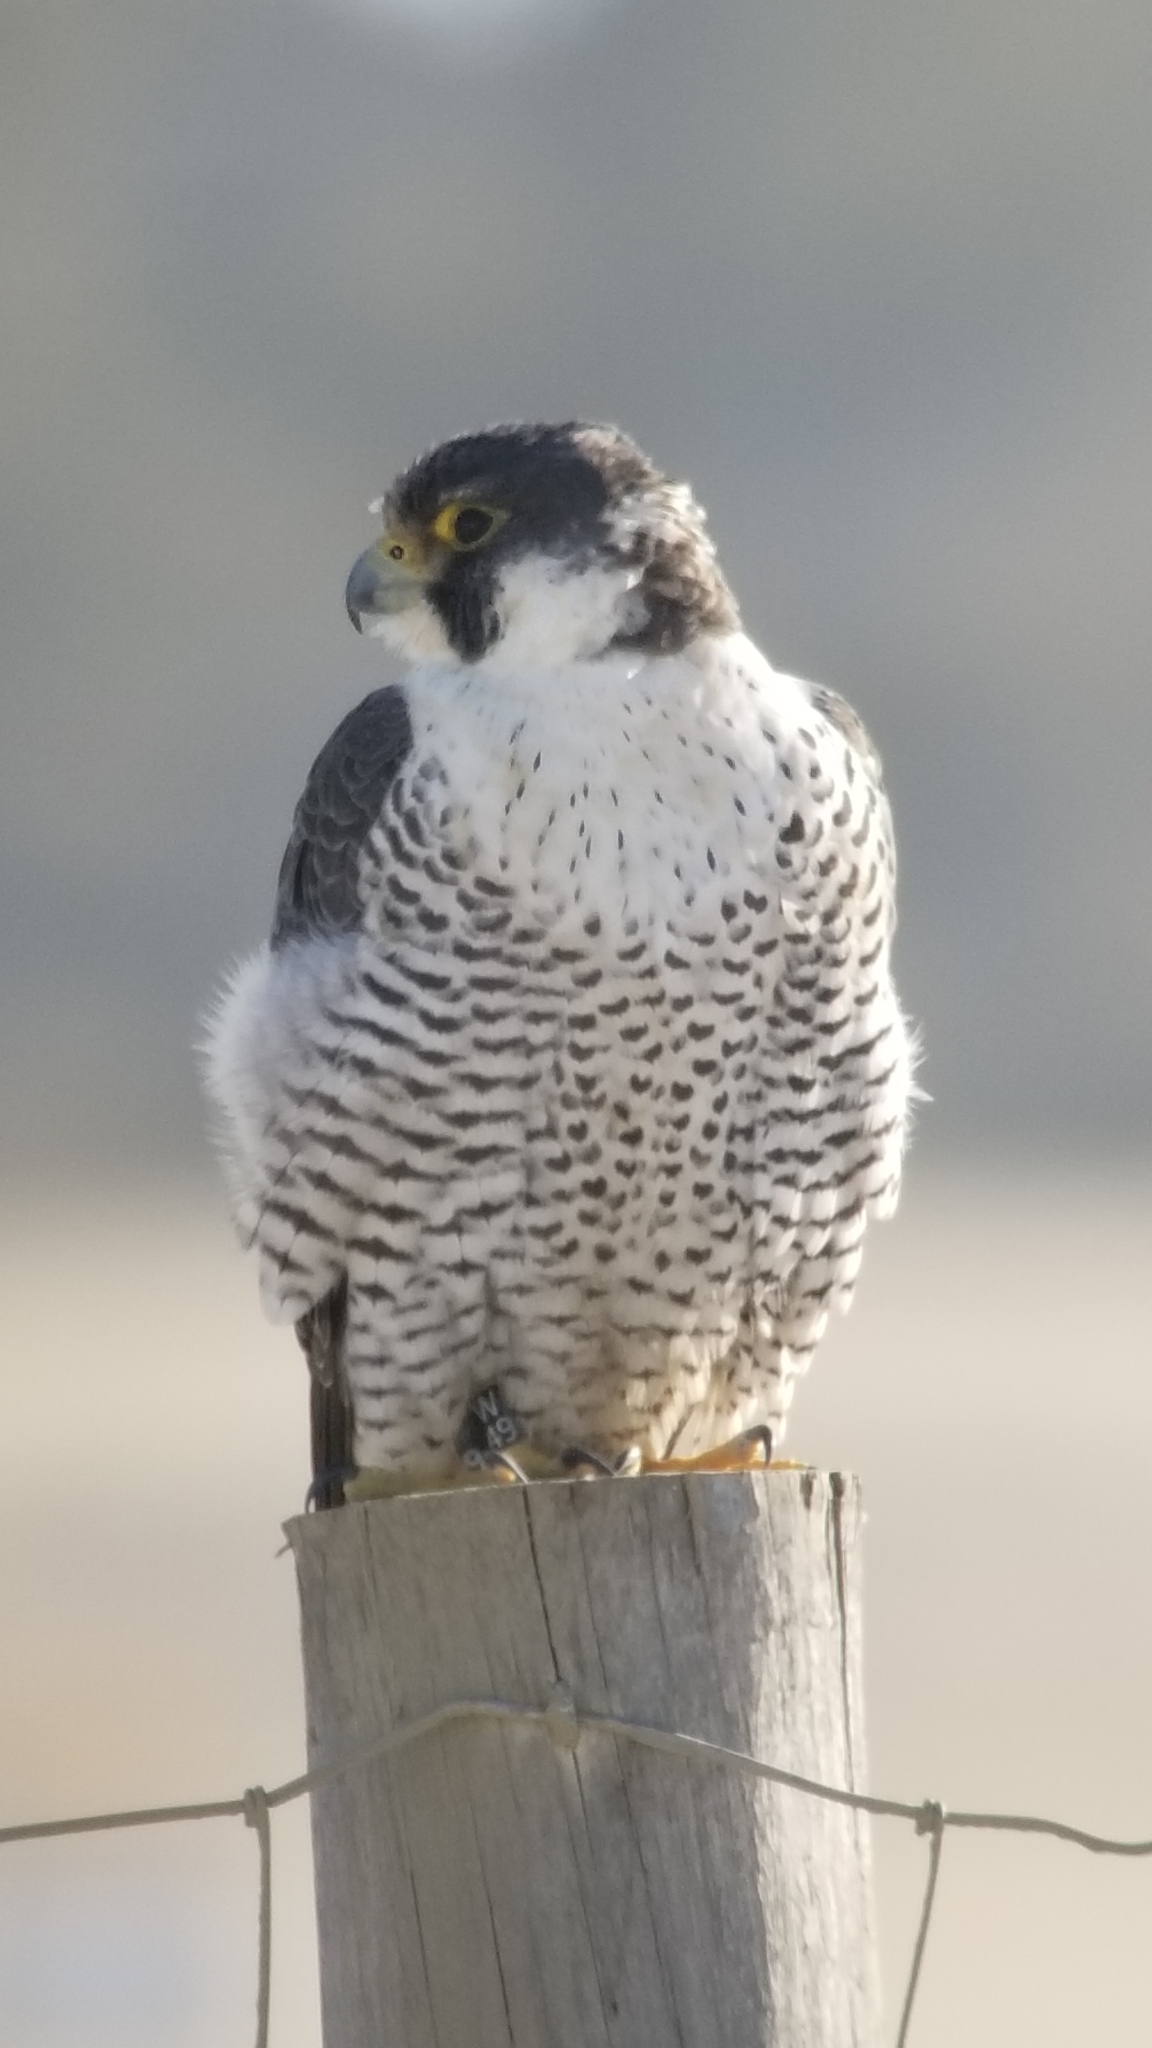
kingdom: Animalia
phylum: Chordata
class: Aves
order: Falconiformes
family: Falconidae
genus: Falco
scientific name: Falco peregrinus
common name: Peregrine falcon
